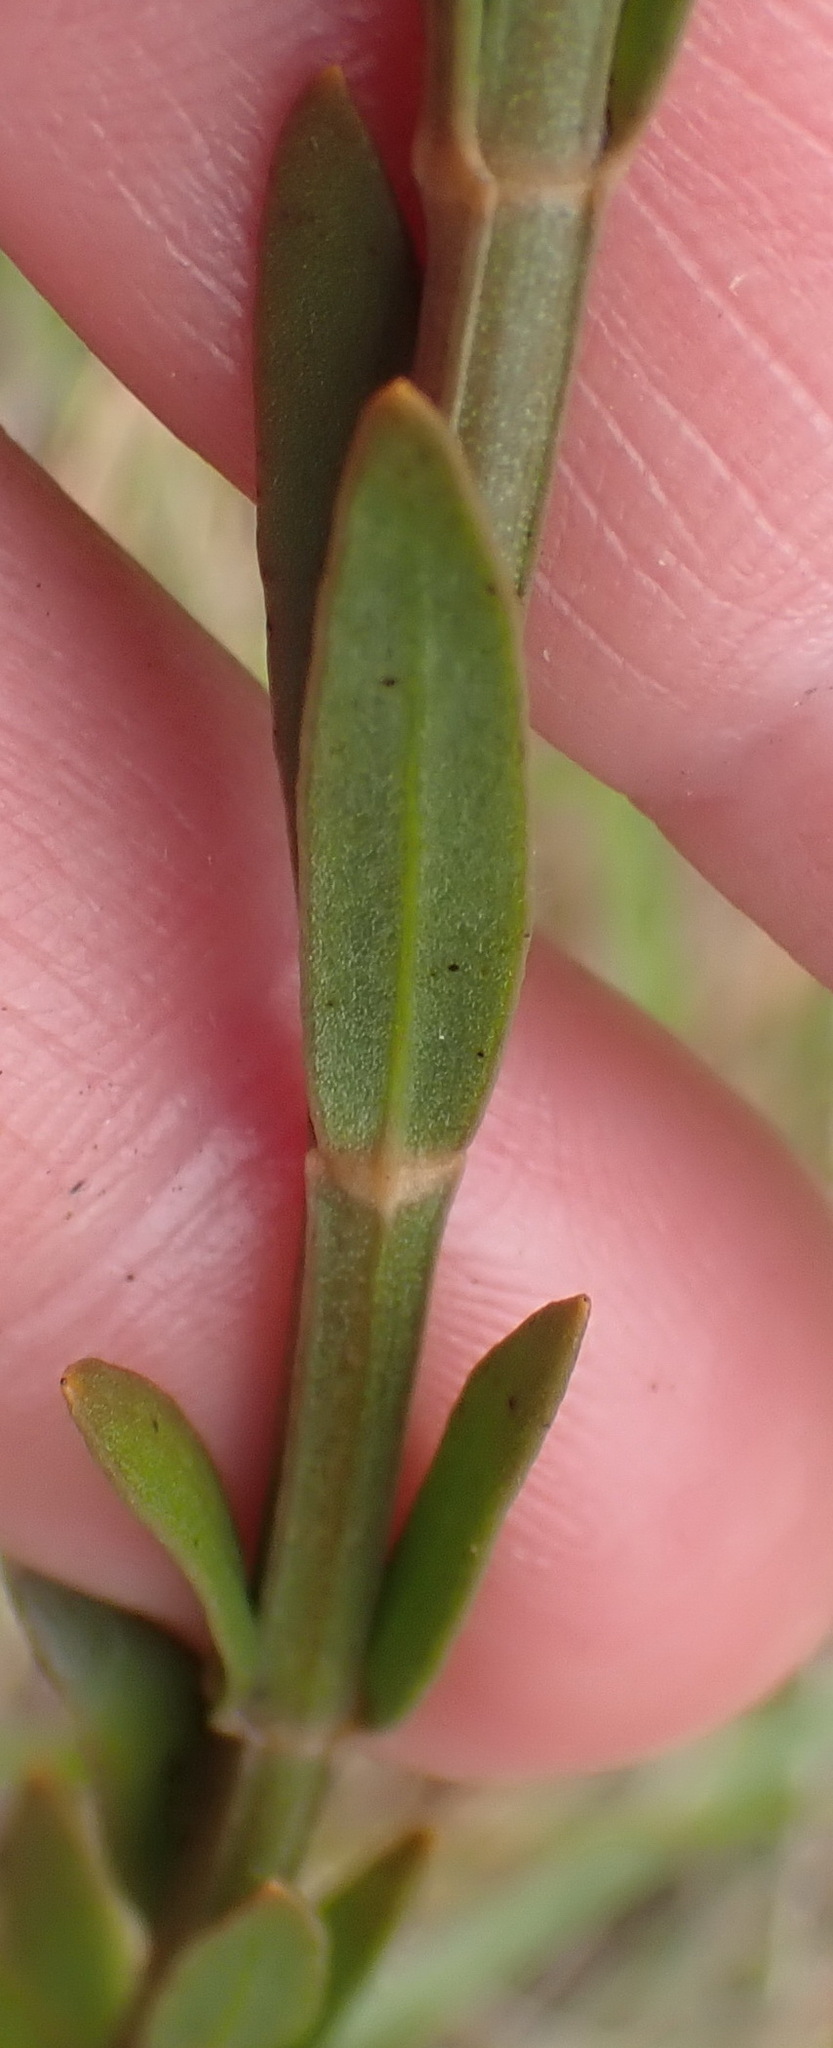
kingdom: Plantae
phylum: Tracheophyta
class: Magnoliopsida
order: Gentianales
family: Gentianaceae
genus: Chironia
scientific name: Chironia tetragona
